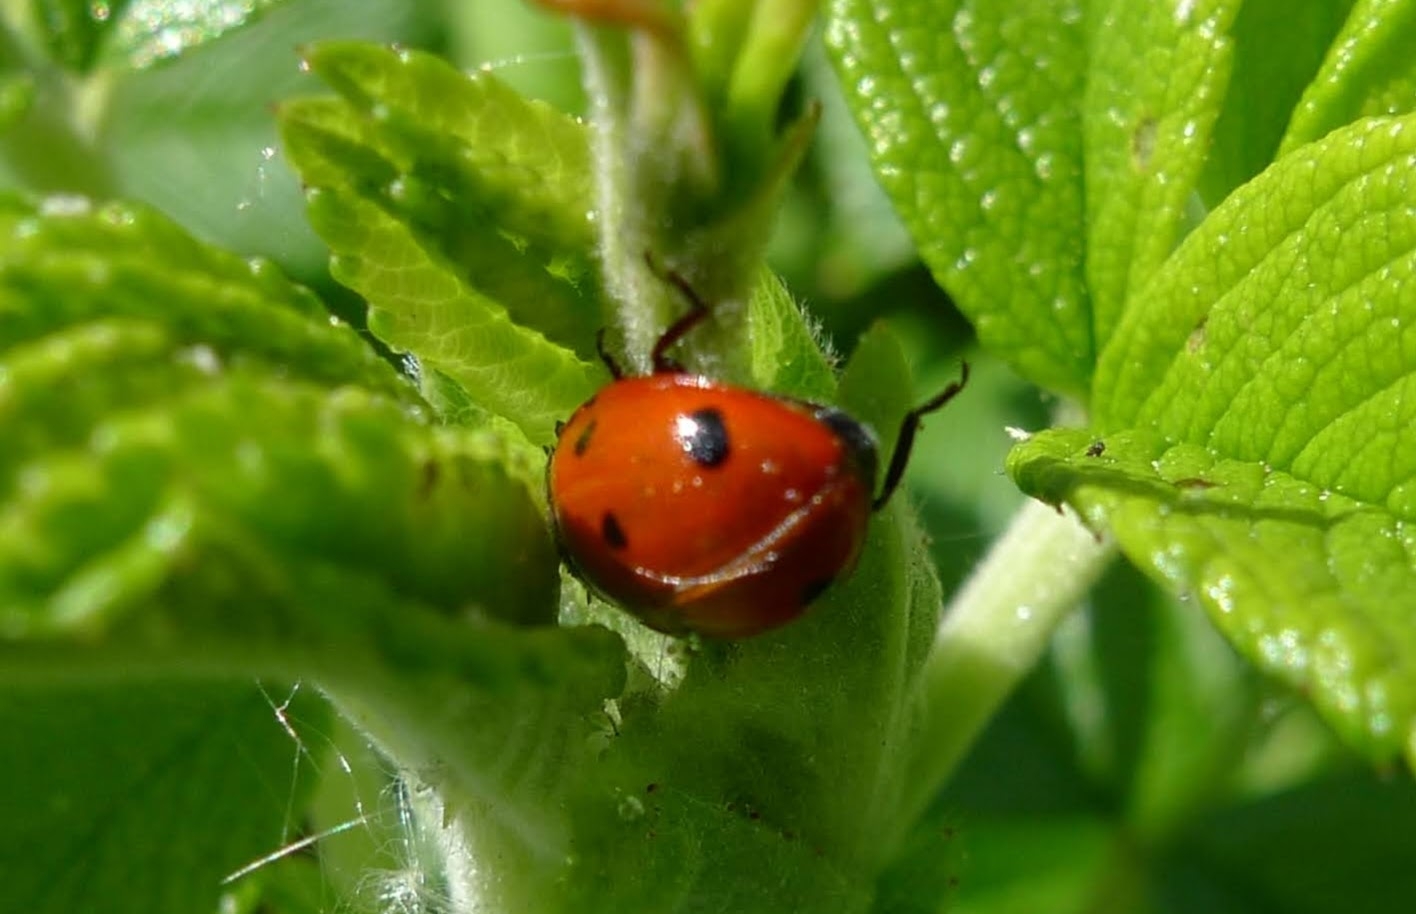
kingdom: Animalia
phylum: Arthropoda
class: Insecta
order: Coleoptera
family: Coccinellidae
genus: Coccinella
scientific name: Coccinella septempunctata
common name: Sevenspotted lady beetle
